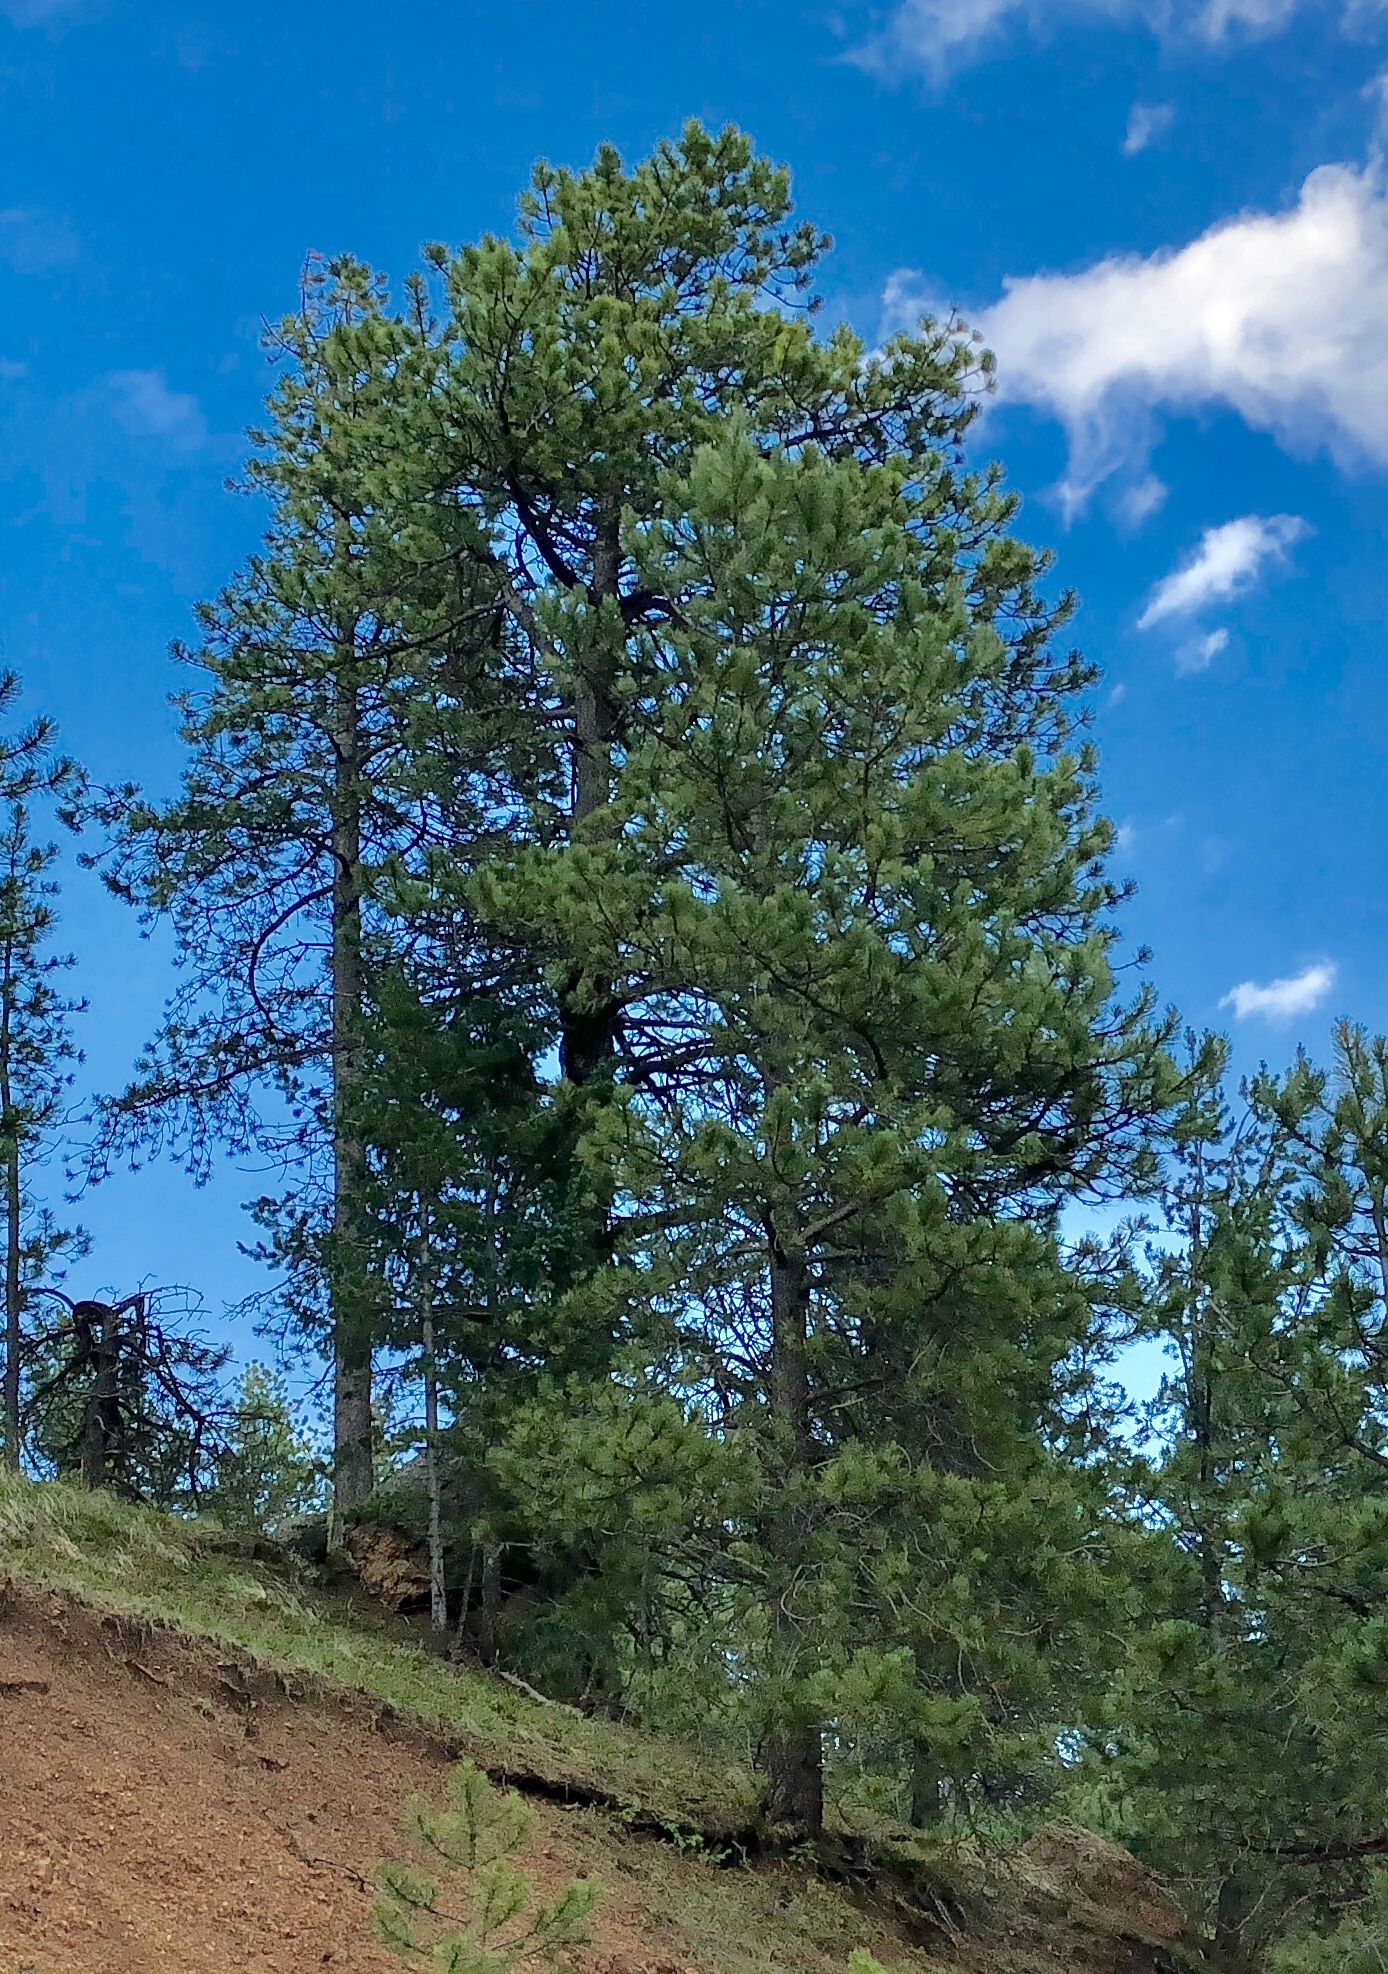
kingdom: Plantae
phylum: Tracheophyta
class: Pinopsida
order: Pinales
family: Pinaceae
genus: Pinus
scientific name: Pinus ponderosa
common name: Western yellow-pine
